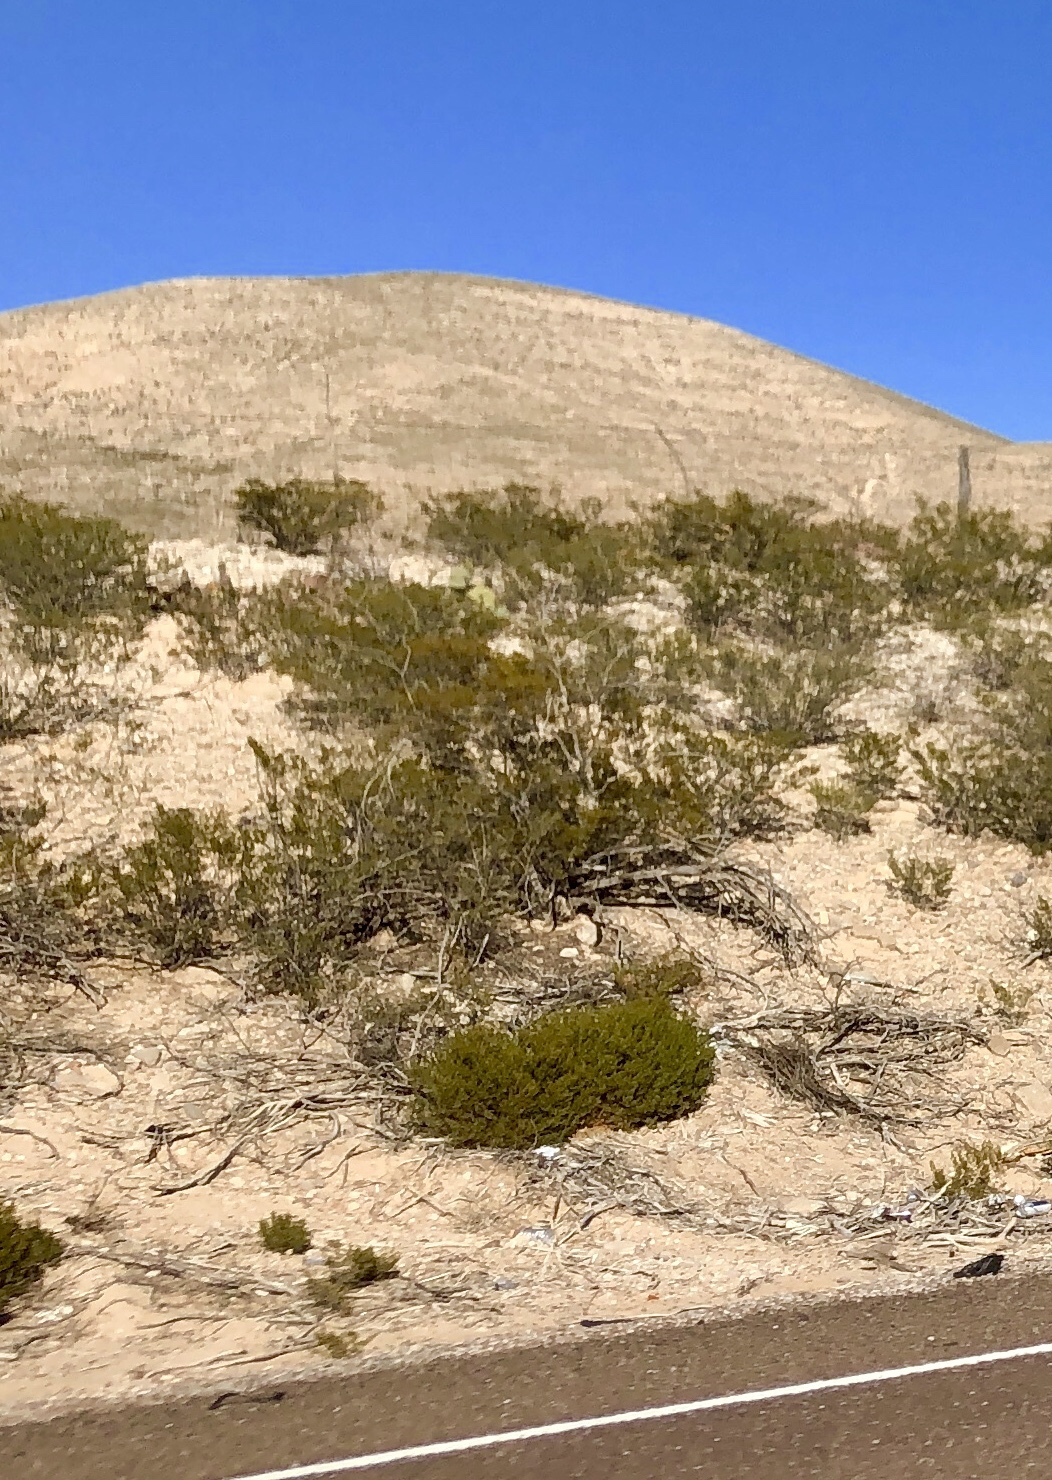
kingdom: Plantae
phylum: Tracheophyta
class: Magnoliopsida
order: Zygophyllales
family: Zygophyllaceae
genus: Larrea
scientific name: Larrea tridentata
